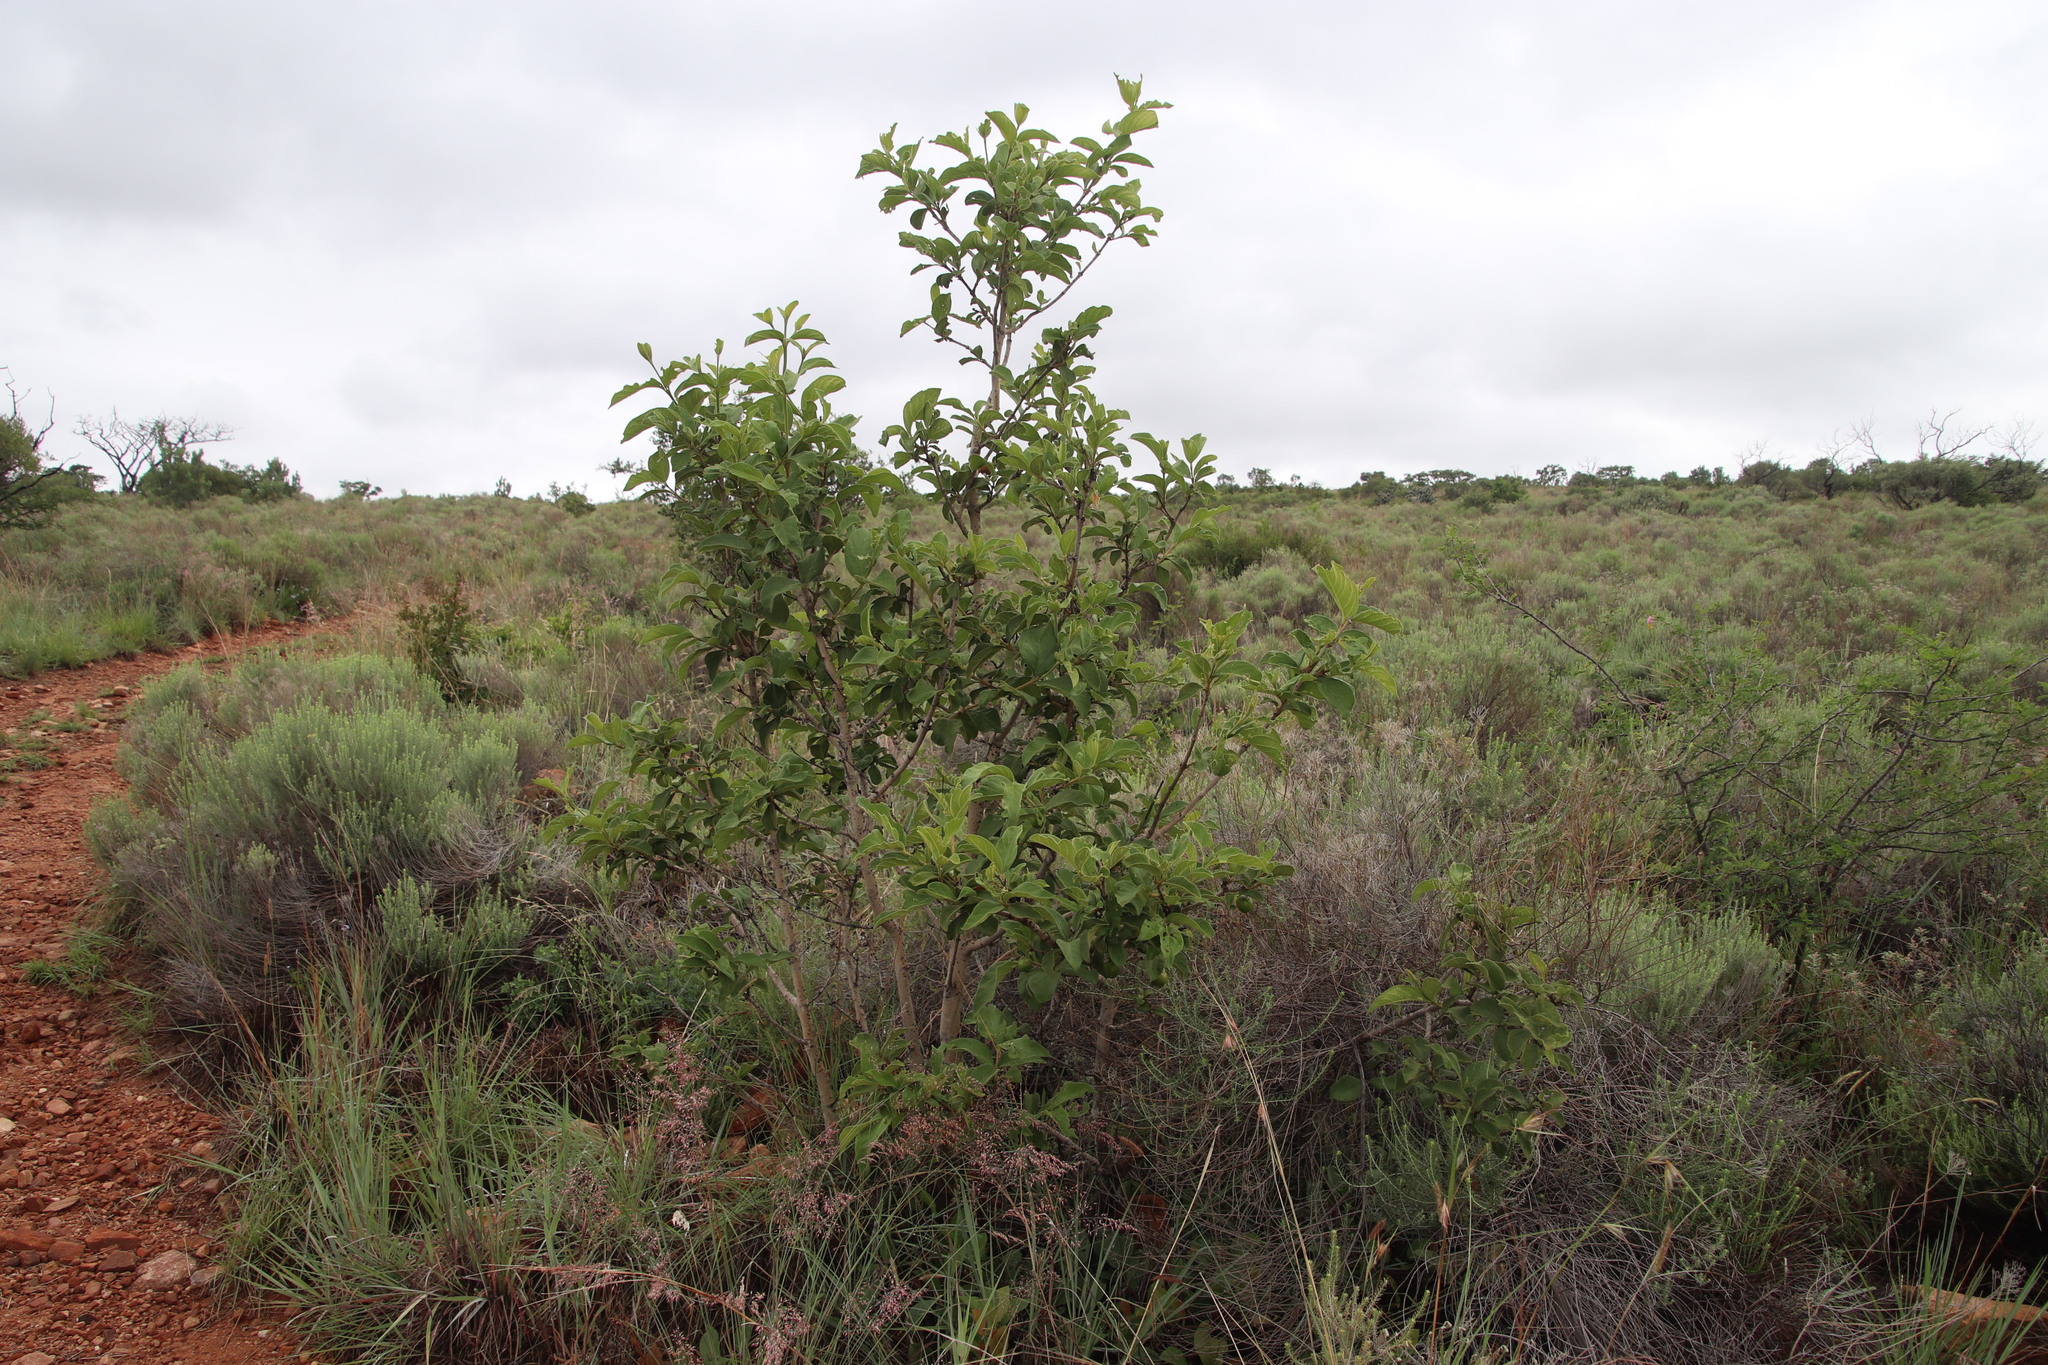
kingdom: Plantae
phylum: Tracheophyta
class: Magnoliopsida
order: Gentianales
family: Rubiaceae
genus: Vangueria
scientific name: Vangueria infausta
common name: Medlar
